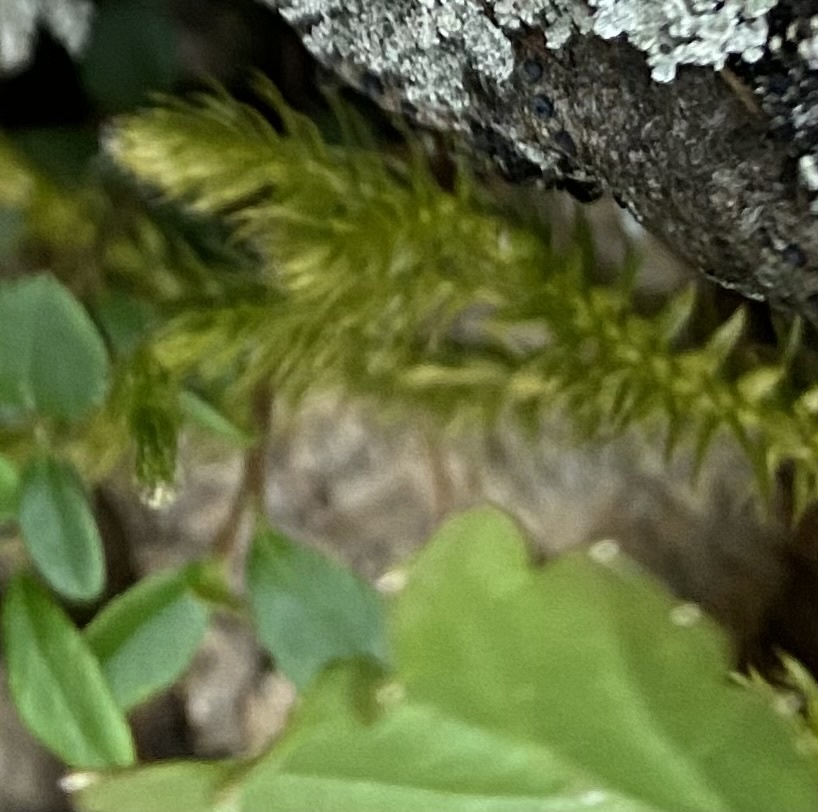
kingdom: Plantae
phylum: Tracheophyta
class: Lycopodiopsida
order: Lycopodiales
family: Lycopodiaceae
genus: Lycopodium
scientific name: Lycopodium clavatum
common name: Stag's-horn clubmoss
